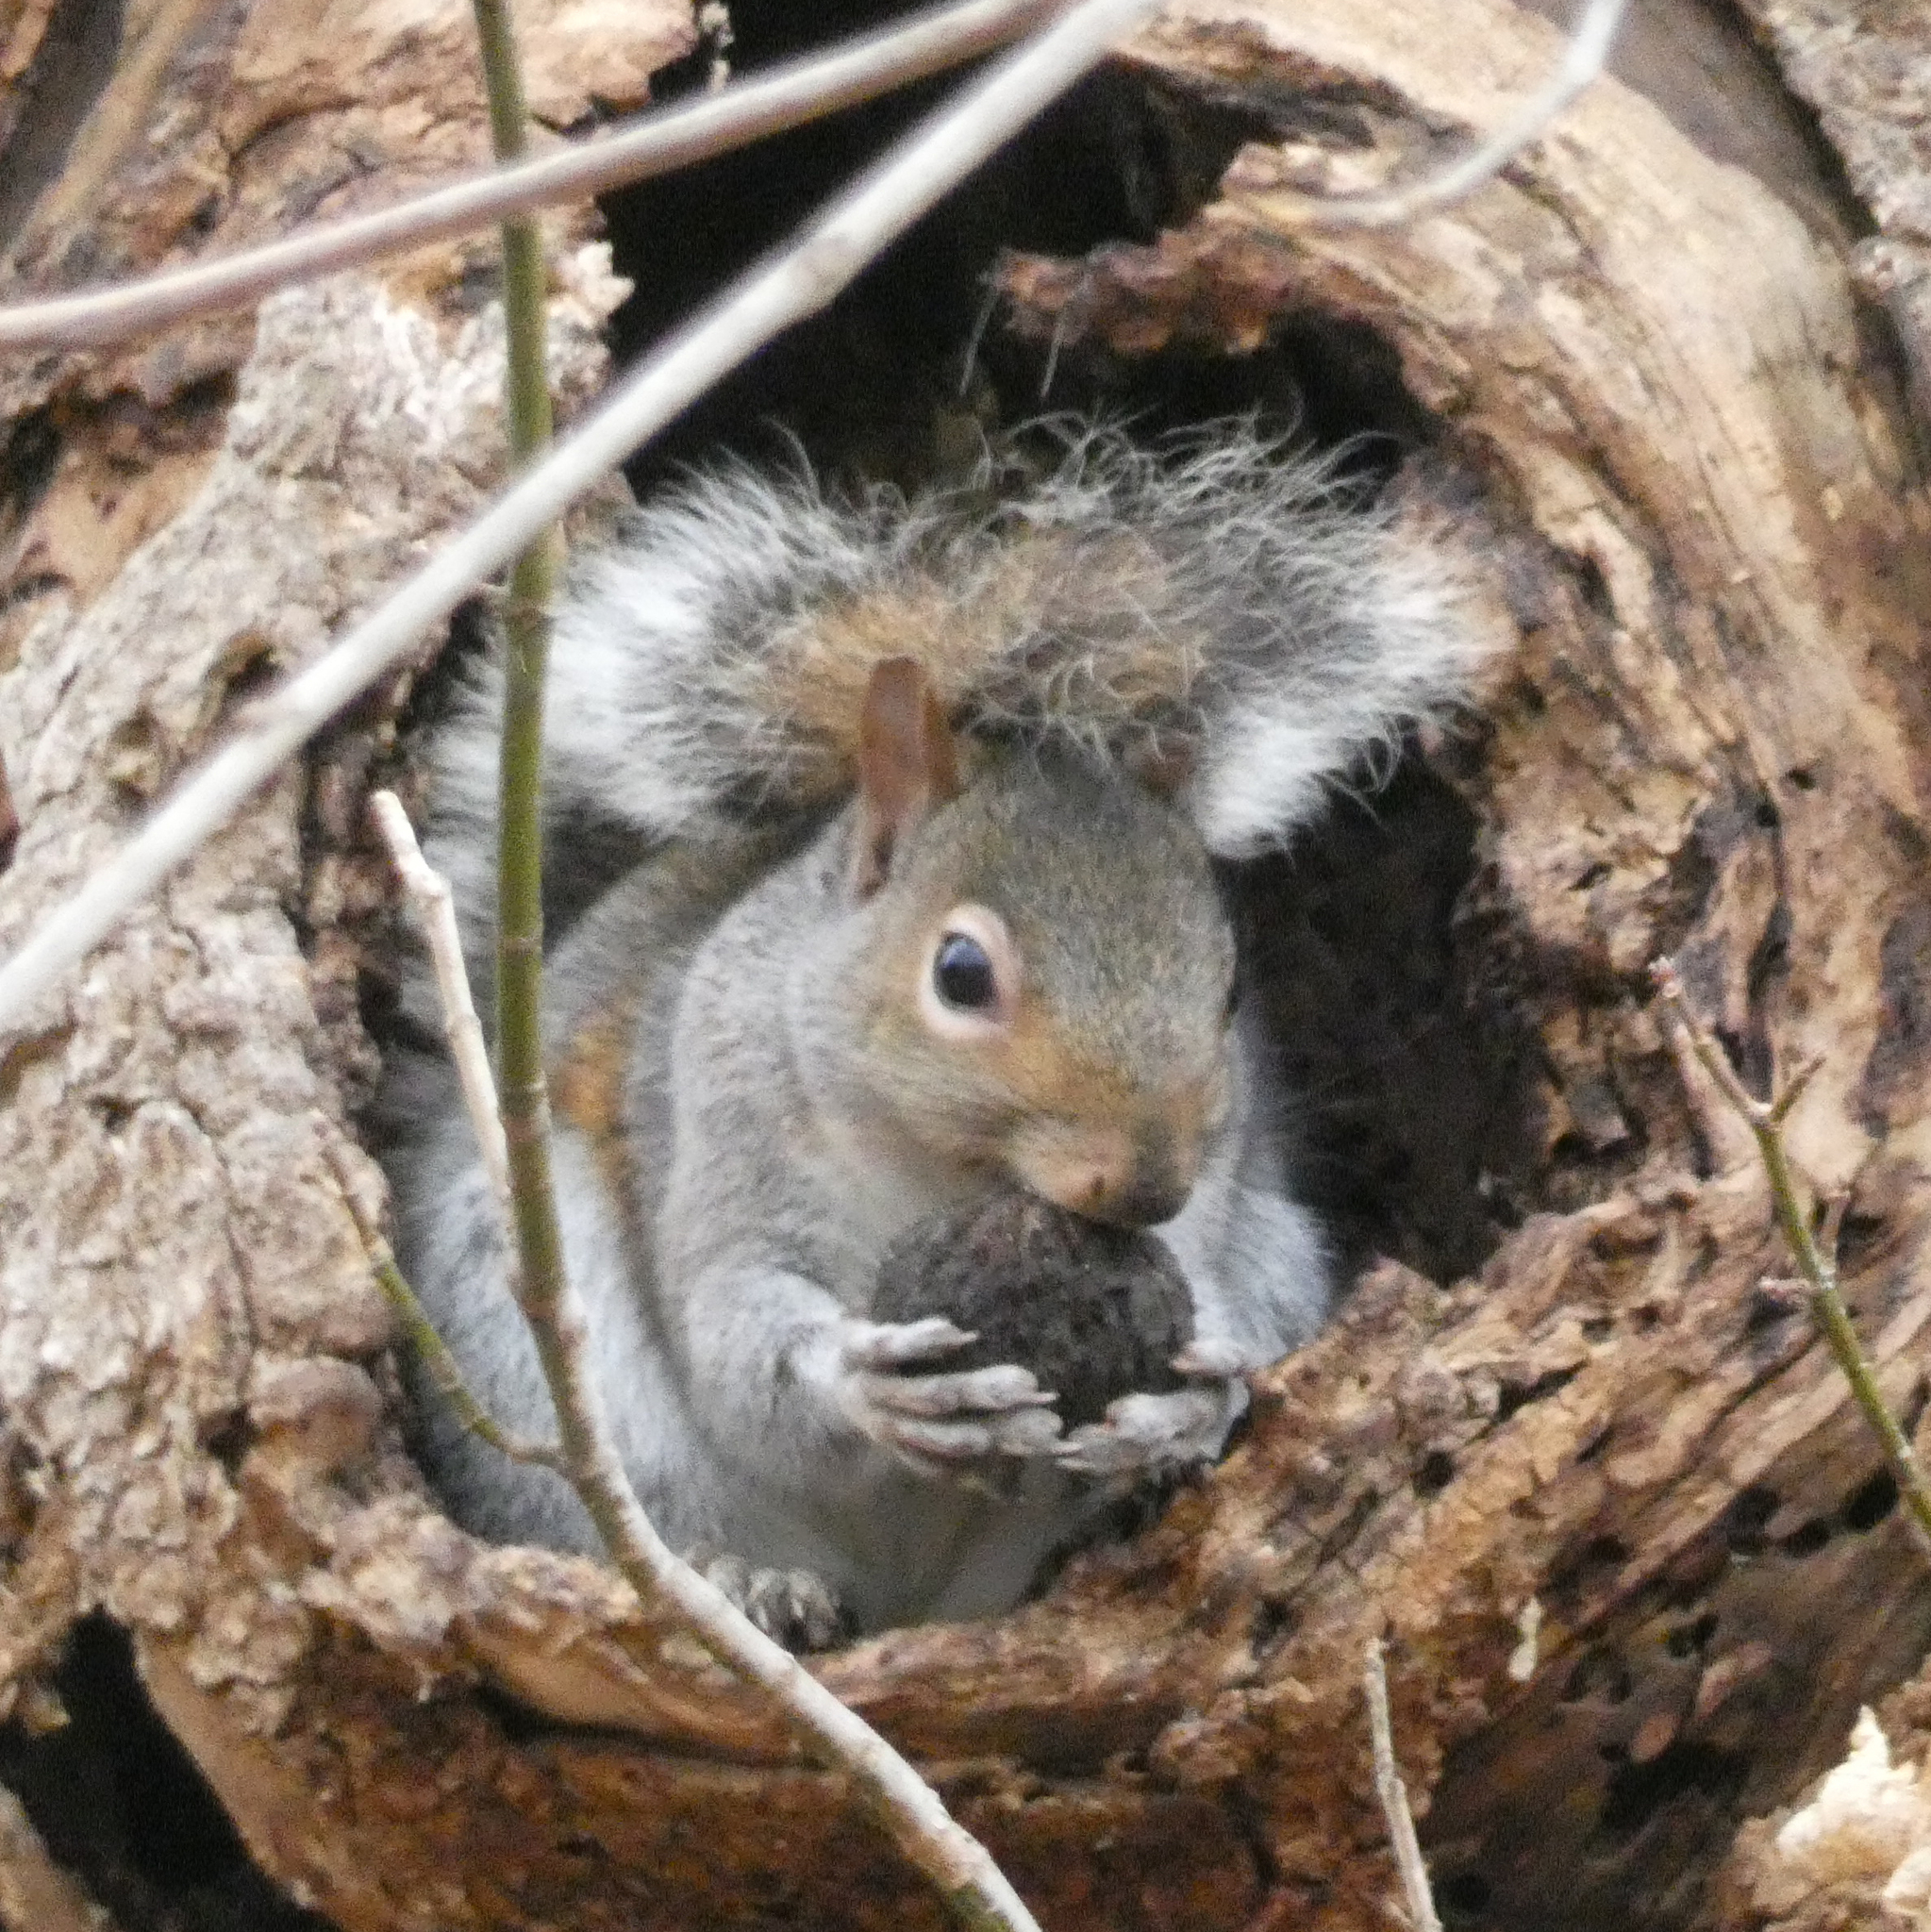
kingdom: Animalia
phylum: Chordata
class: Mammalia
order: Rodentia
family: Sciuridae
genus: Sciurus
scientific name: Sciurus carolinensis
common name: Eastern gray squirrel
